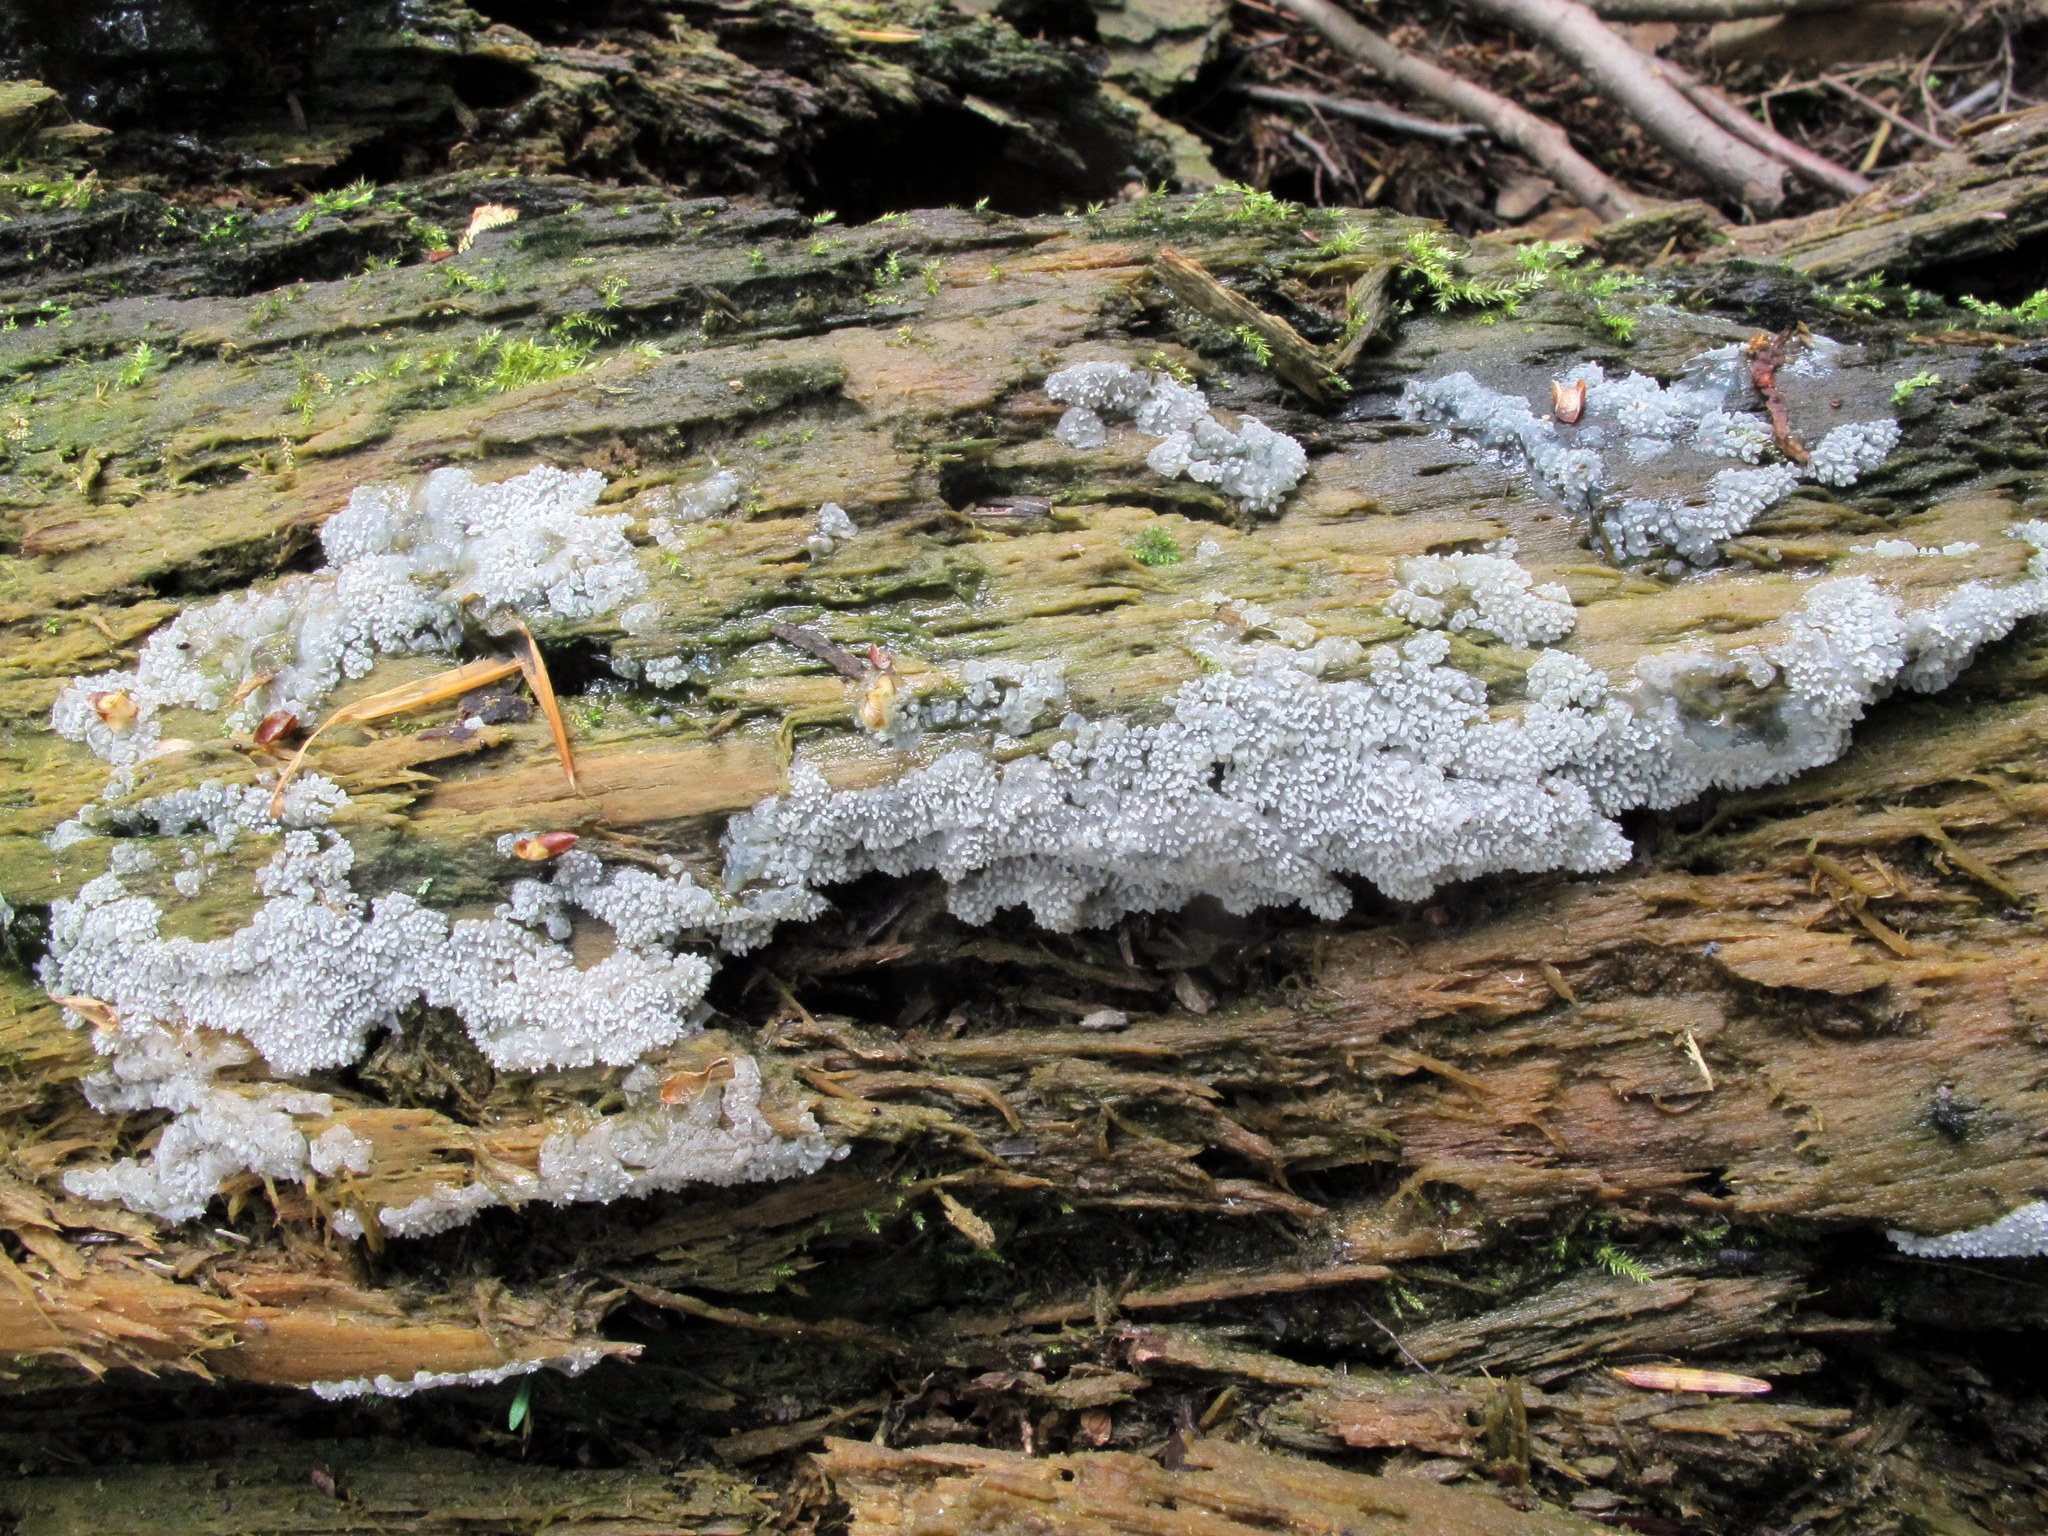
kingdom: Protozoa
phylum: Mycetozoa
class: Protosteliomycetes
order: Ceratiomyxales
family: Ceratiomyxaceae
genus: Ceratiomyxa
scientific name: Ceratiomyxa fruticulosa
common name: Honeycomb coral slime mold
